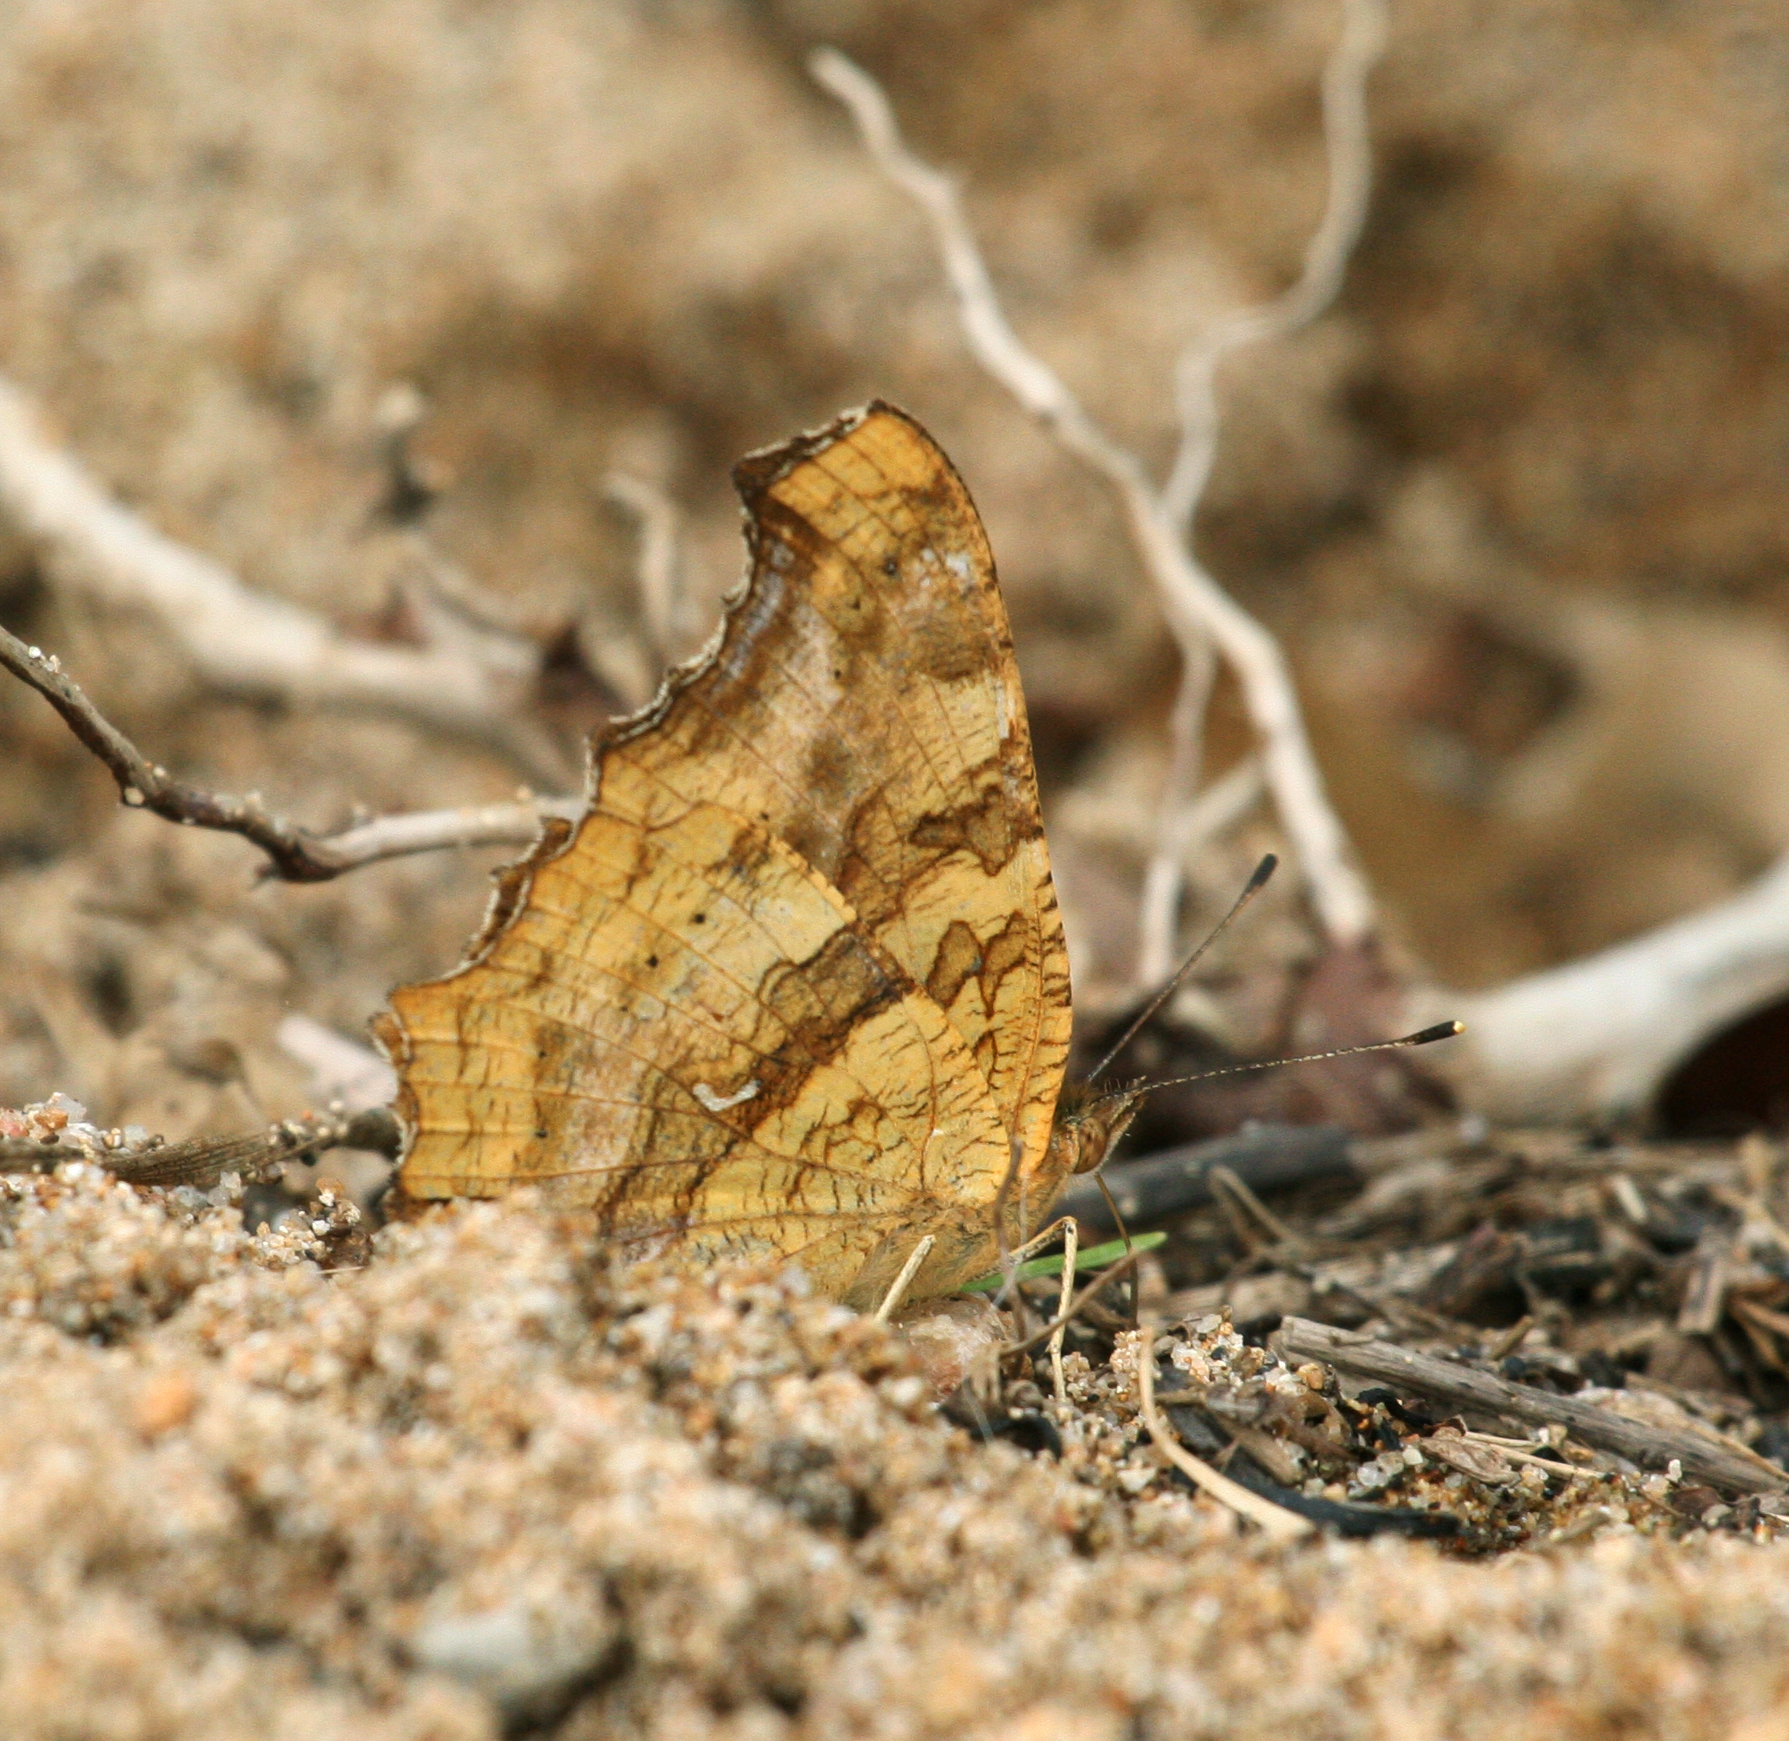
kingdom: Animalia
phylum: Arthropoda
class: Insecta
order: Lepidoptera
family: Nymphalidae
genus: Polygonia
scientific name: Polygonia c-aureum
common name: Asian comma
